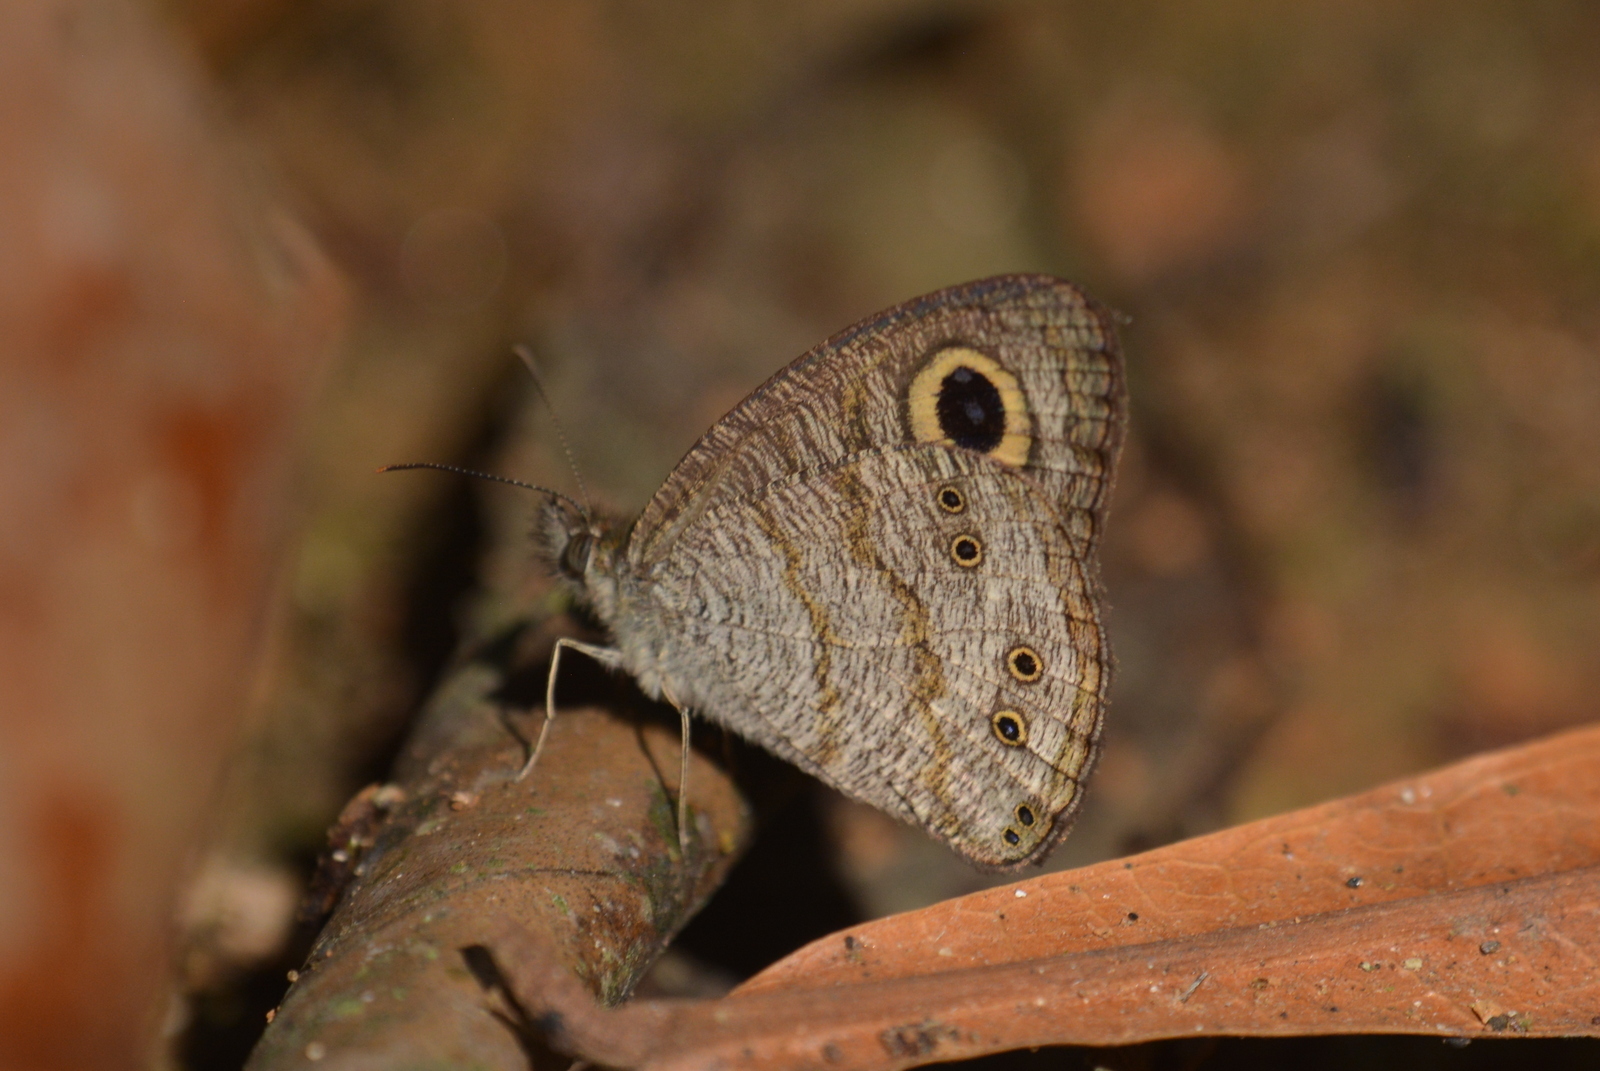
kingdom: Animalia
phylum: Arthropoda
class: Insecta
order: Lepidoptera
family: Nymphalidae
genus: Ypthima
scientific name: Ypthima baldus
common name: Common five-ring
